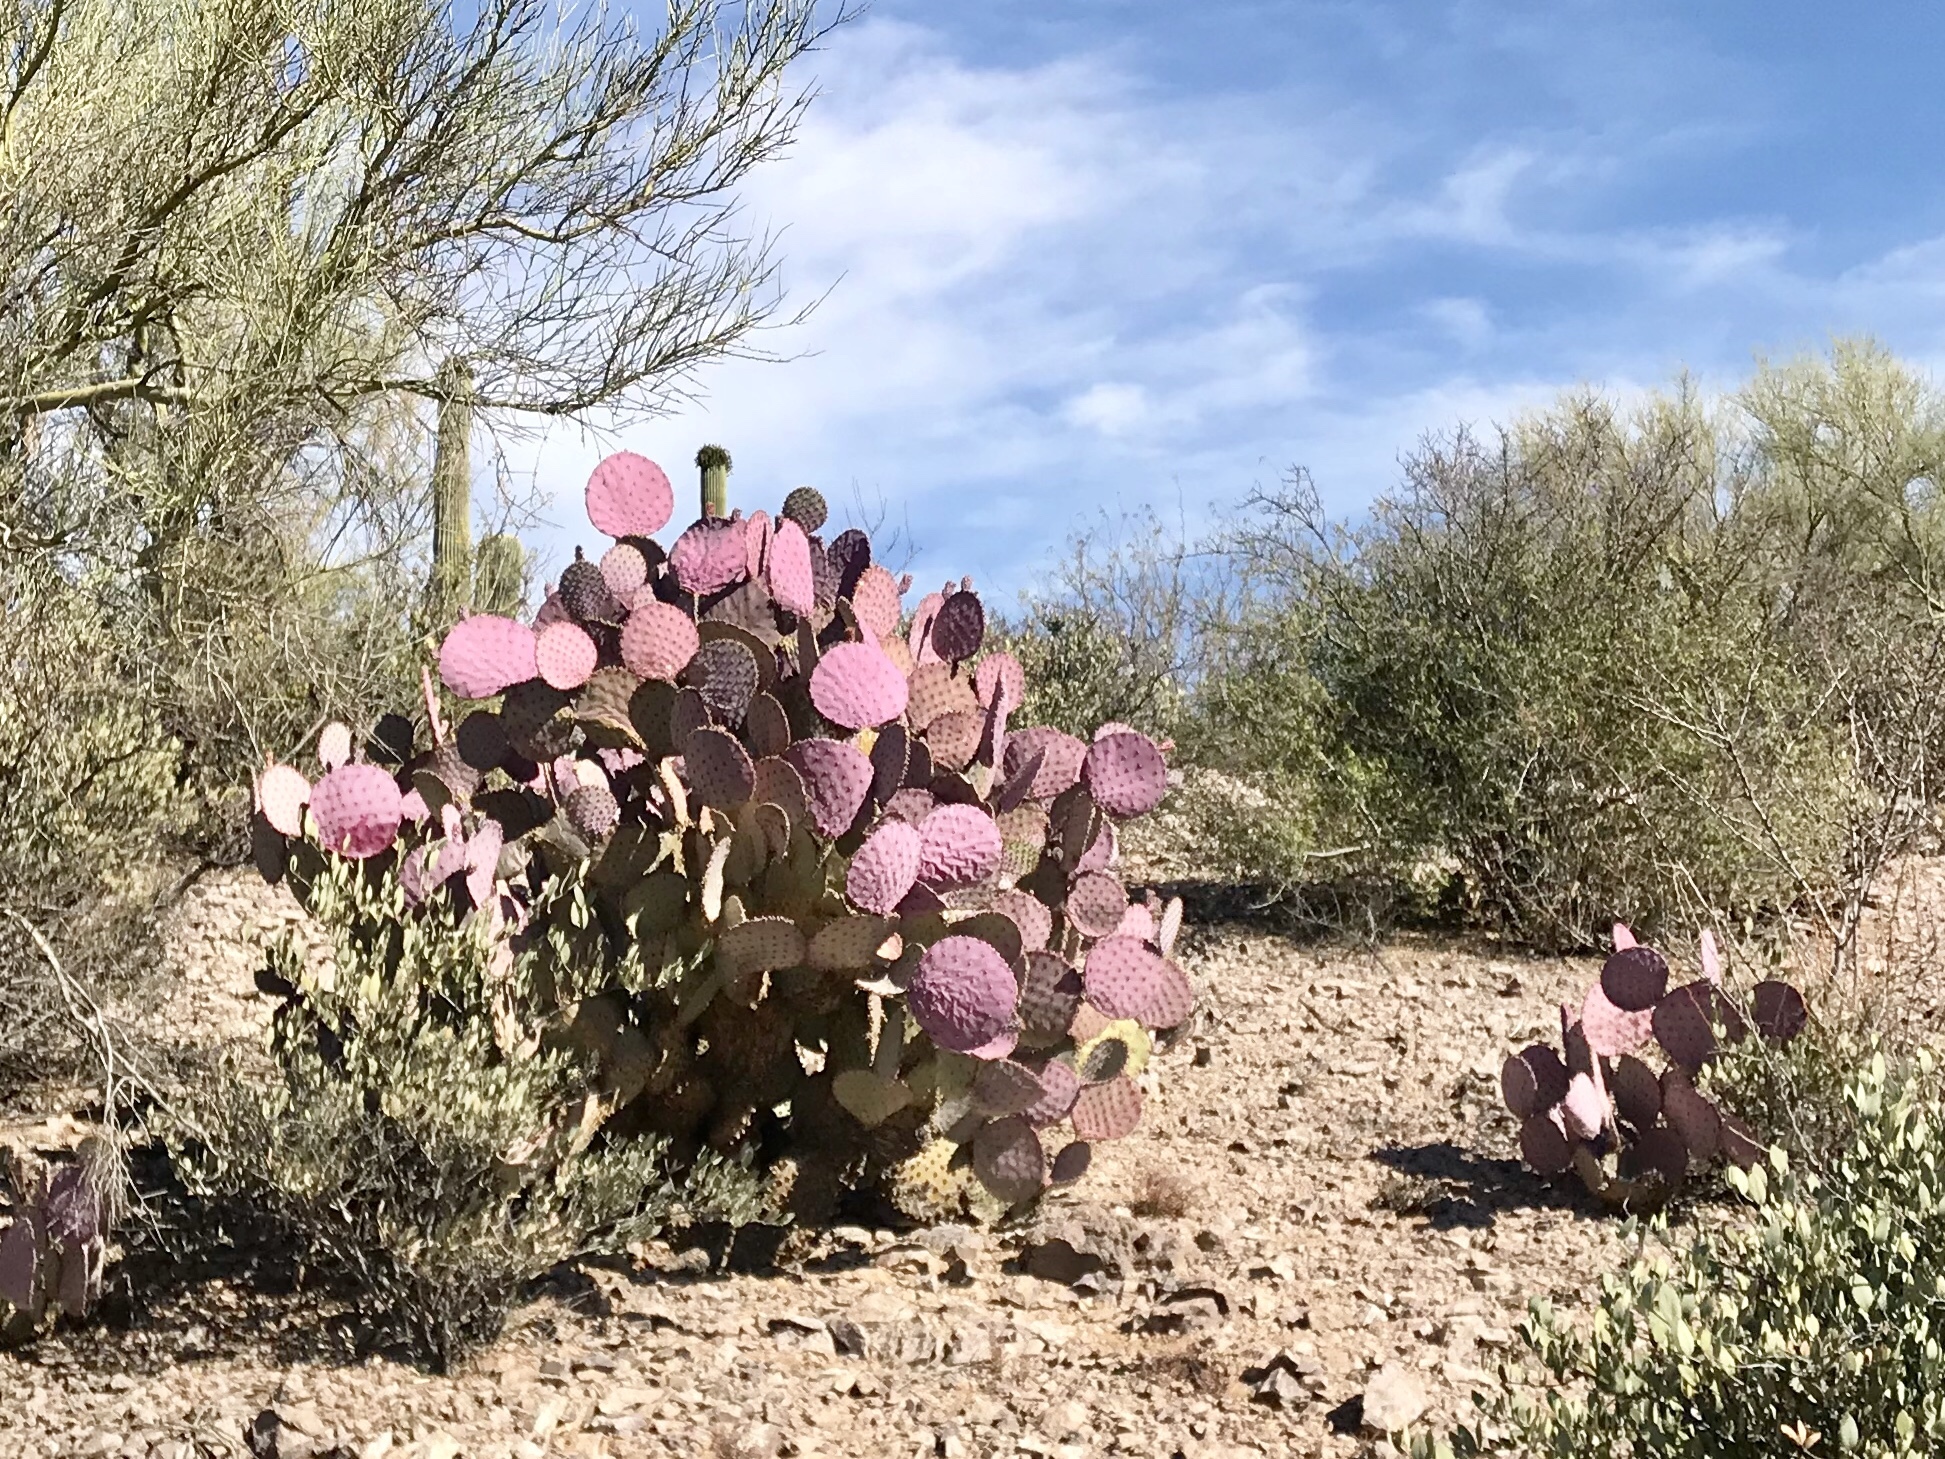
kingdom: Plantae
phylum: Tracheophyta
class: Magnoliopsida
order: Caryophyllales
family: Cactaceae
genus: Opuntia
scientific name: Opuntia gosseliniana
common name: Violet prickly-pear
